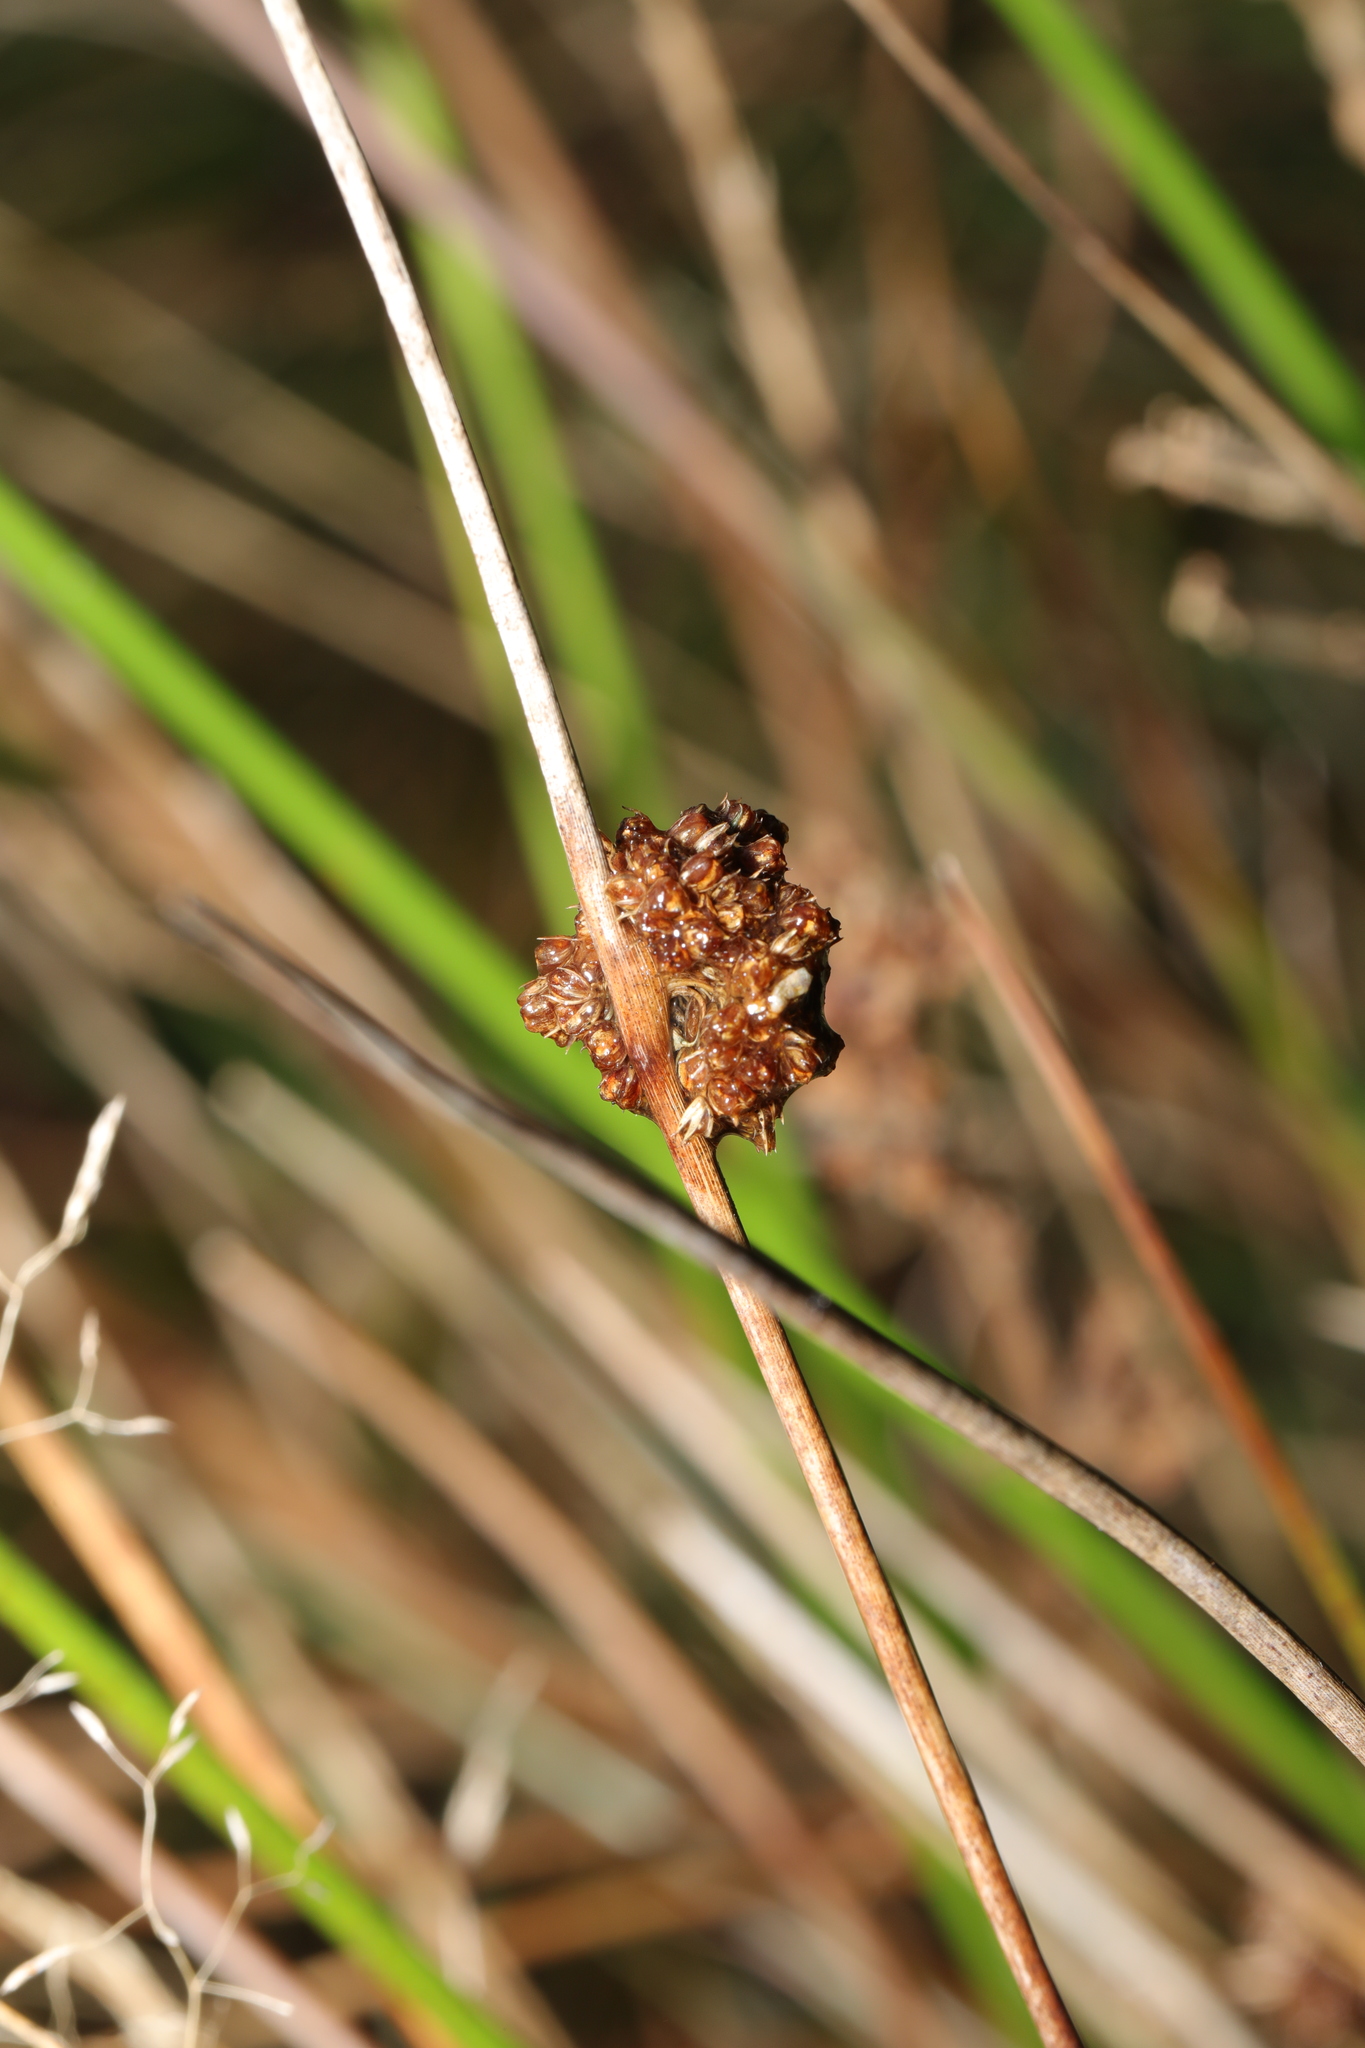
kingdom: Plantae
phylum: Tracheophyta
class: Liliopsida
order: Poales
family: Juncaceae
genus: Juncus
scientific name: Juncus conglomeratus
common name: Compact rush
